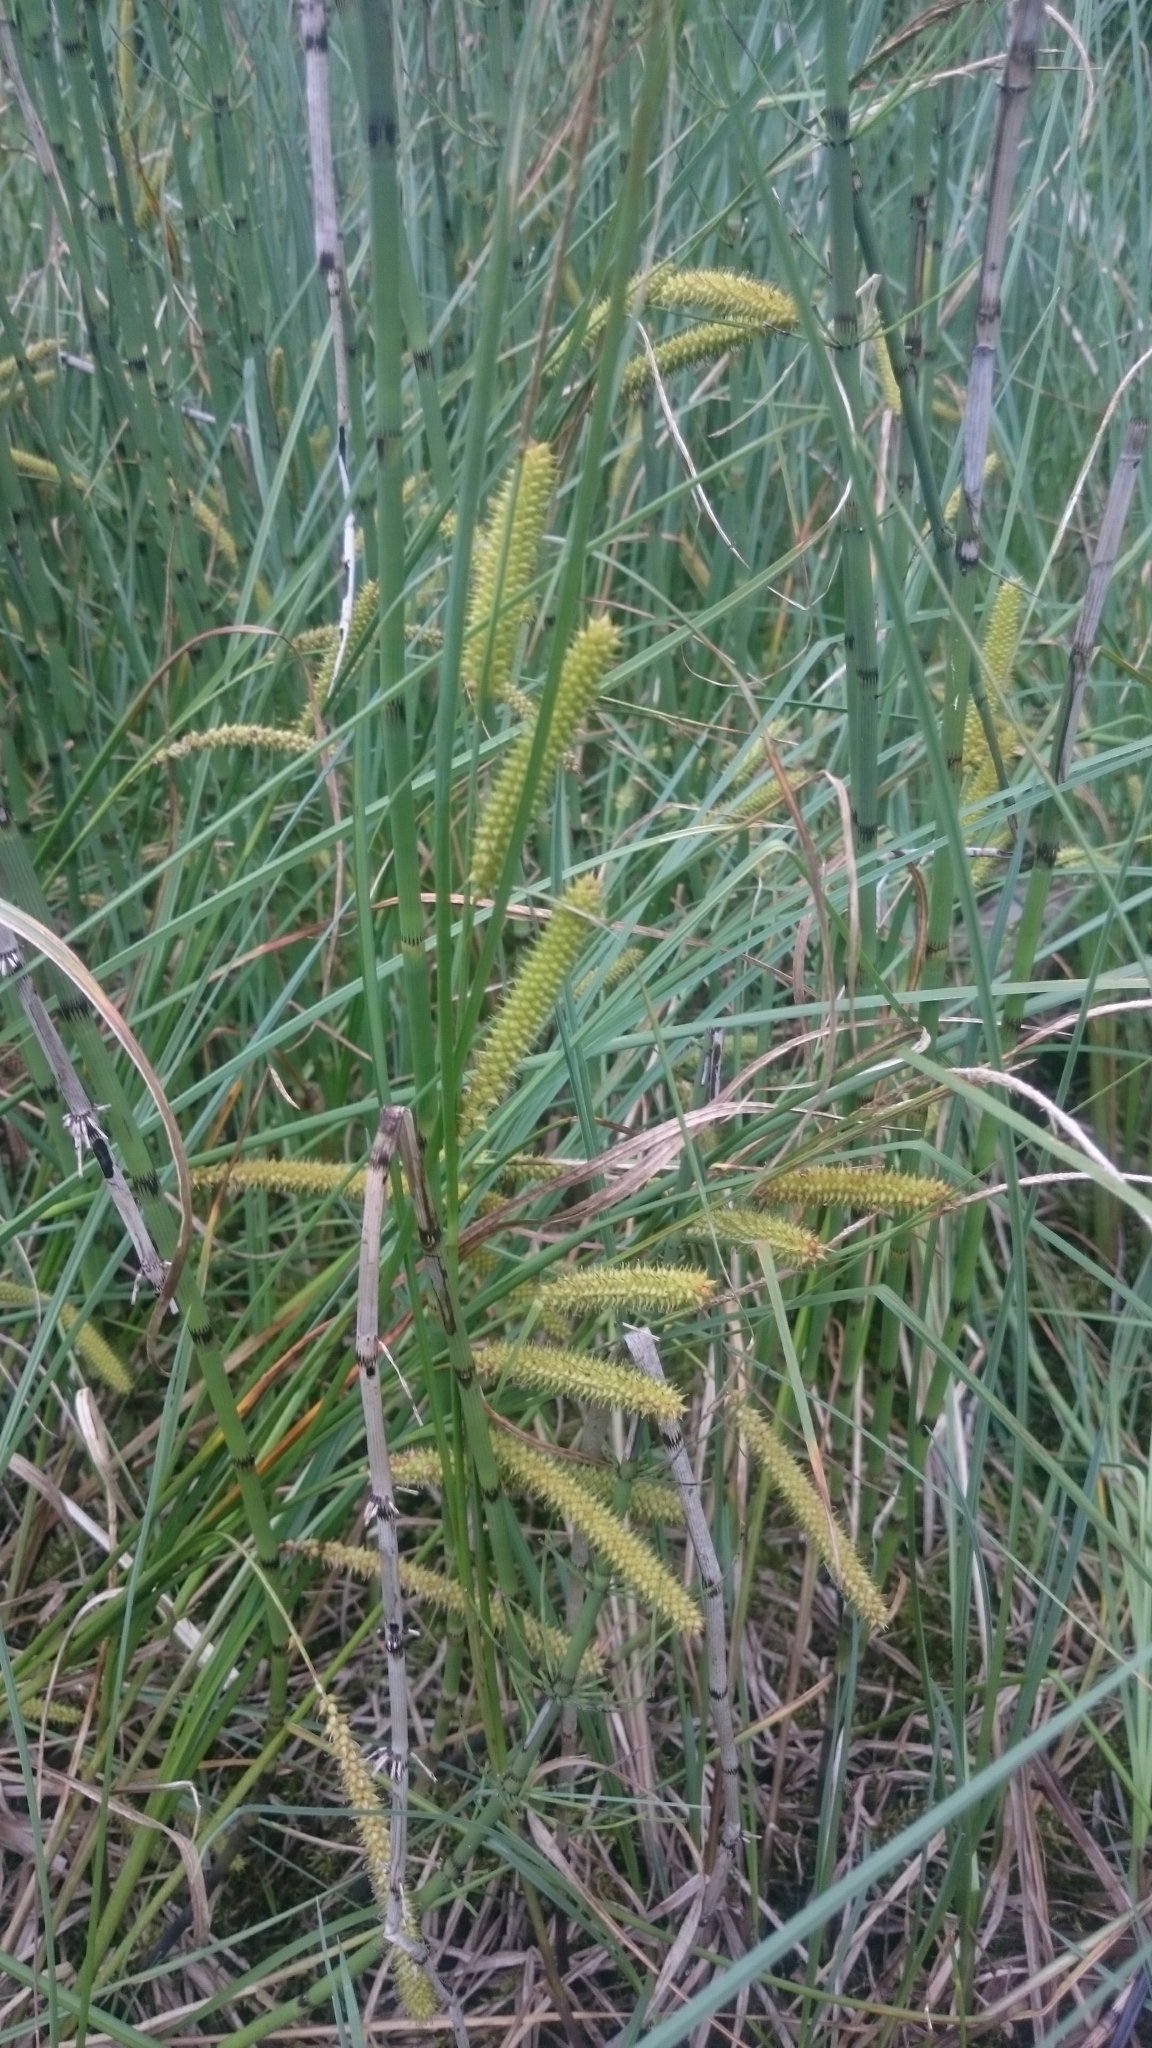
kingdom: Plantae
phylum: Tracheophyta
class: Liliopsida
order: Poales
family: Cyperaceae
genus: Carex
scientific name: Carex rostrata
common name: Bottle sedge
